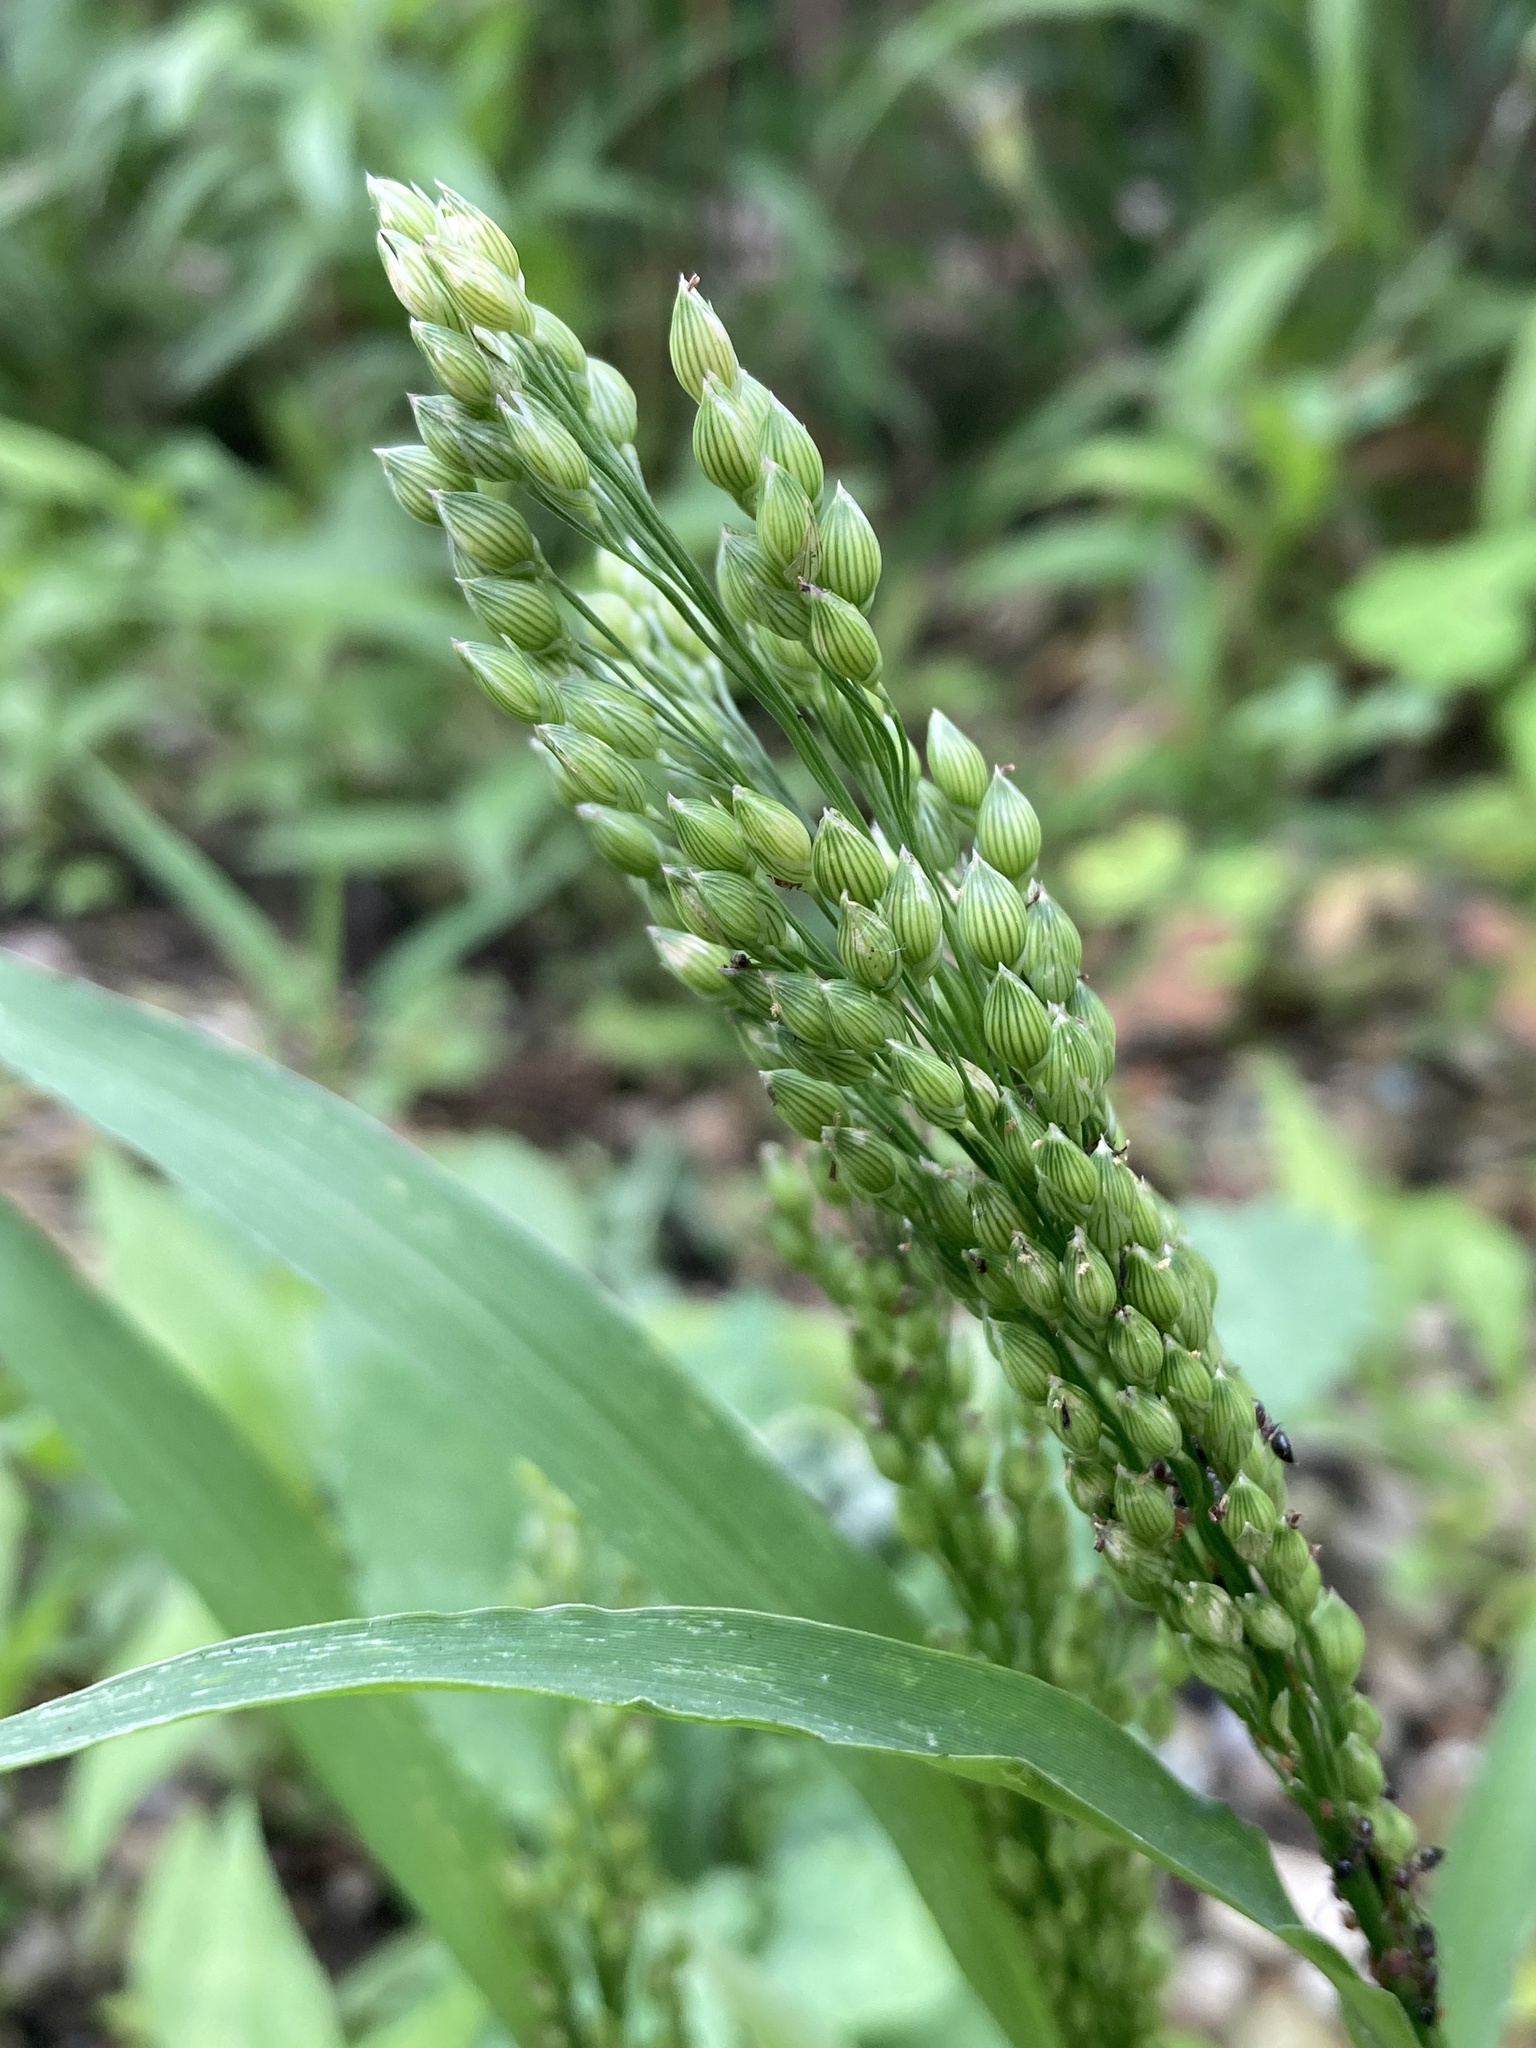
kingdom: Plantae
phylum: Tracheophyta
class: Liliopsida
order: Poales
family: Poaceae
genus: Panicum
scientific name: Panicum miliaceum
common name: Common millet
